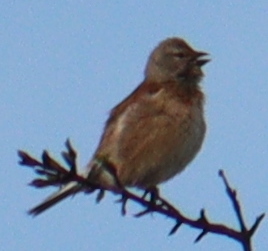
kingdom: Animalia
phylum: Chordata
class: Aves
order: Passeriformes
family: Fringillidae
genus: Linaria
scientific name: Linaria cannabina
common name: Common linnet
